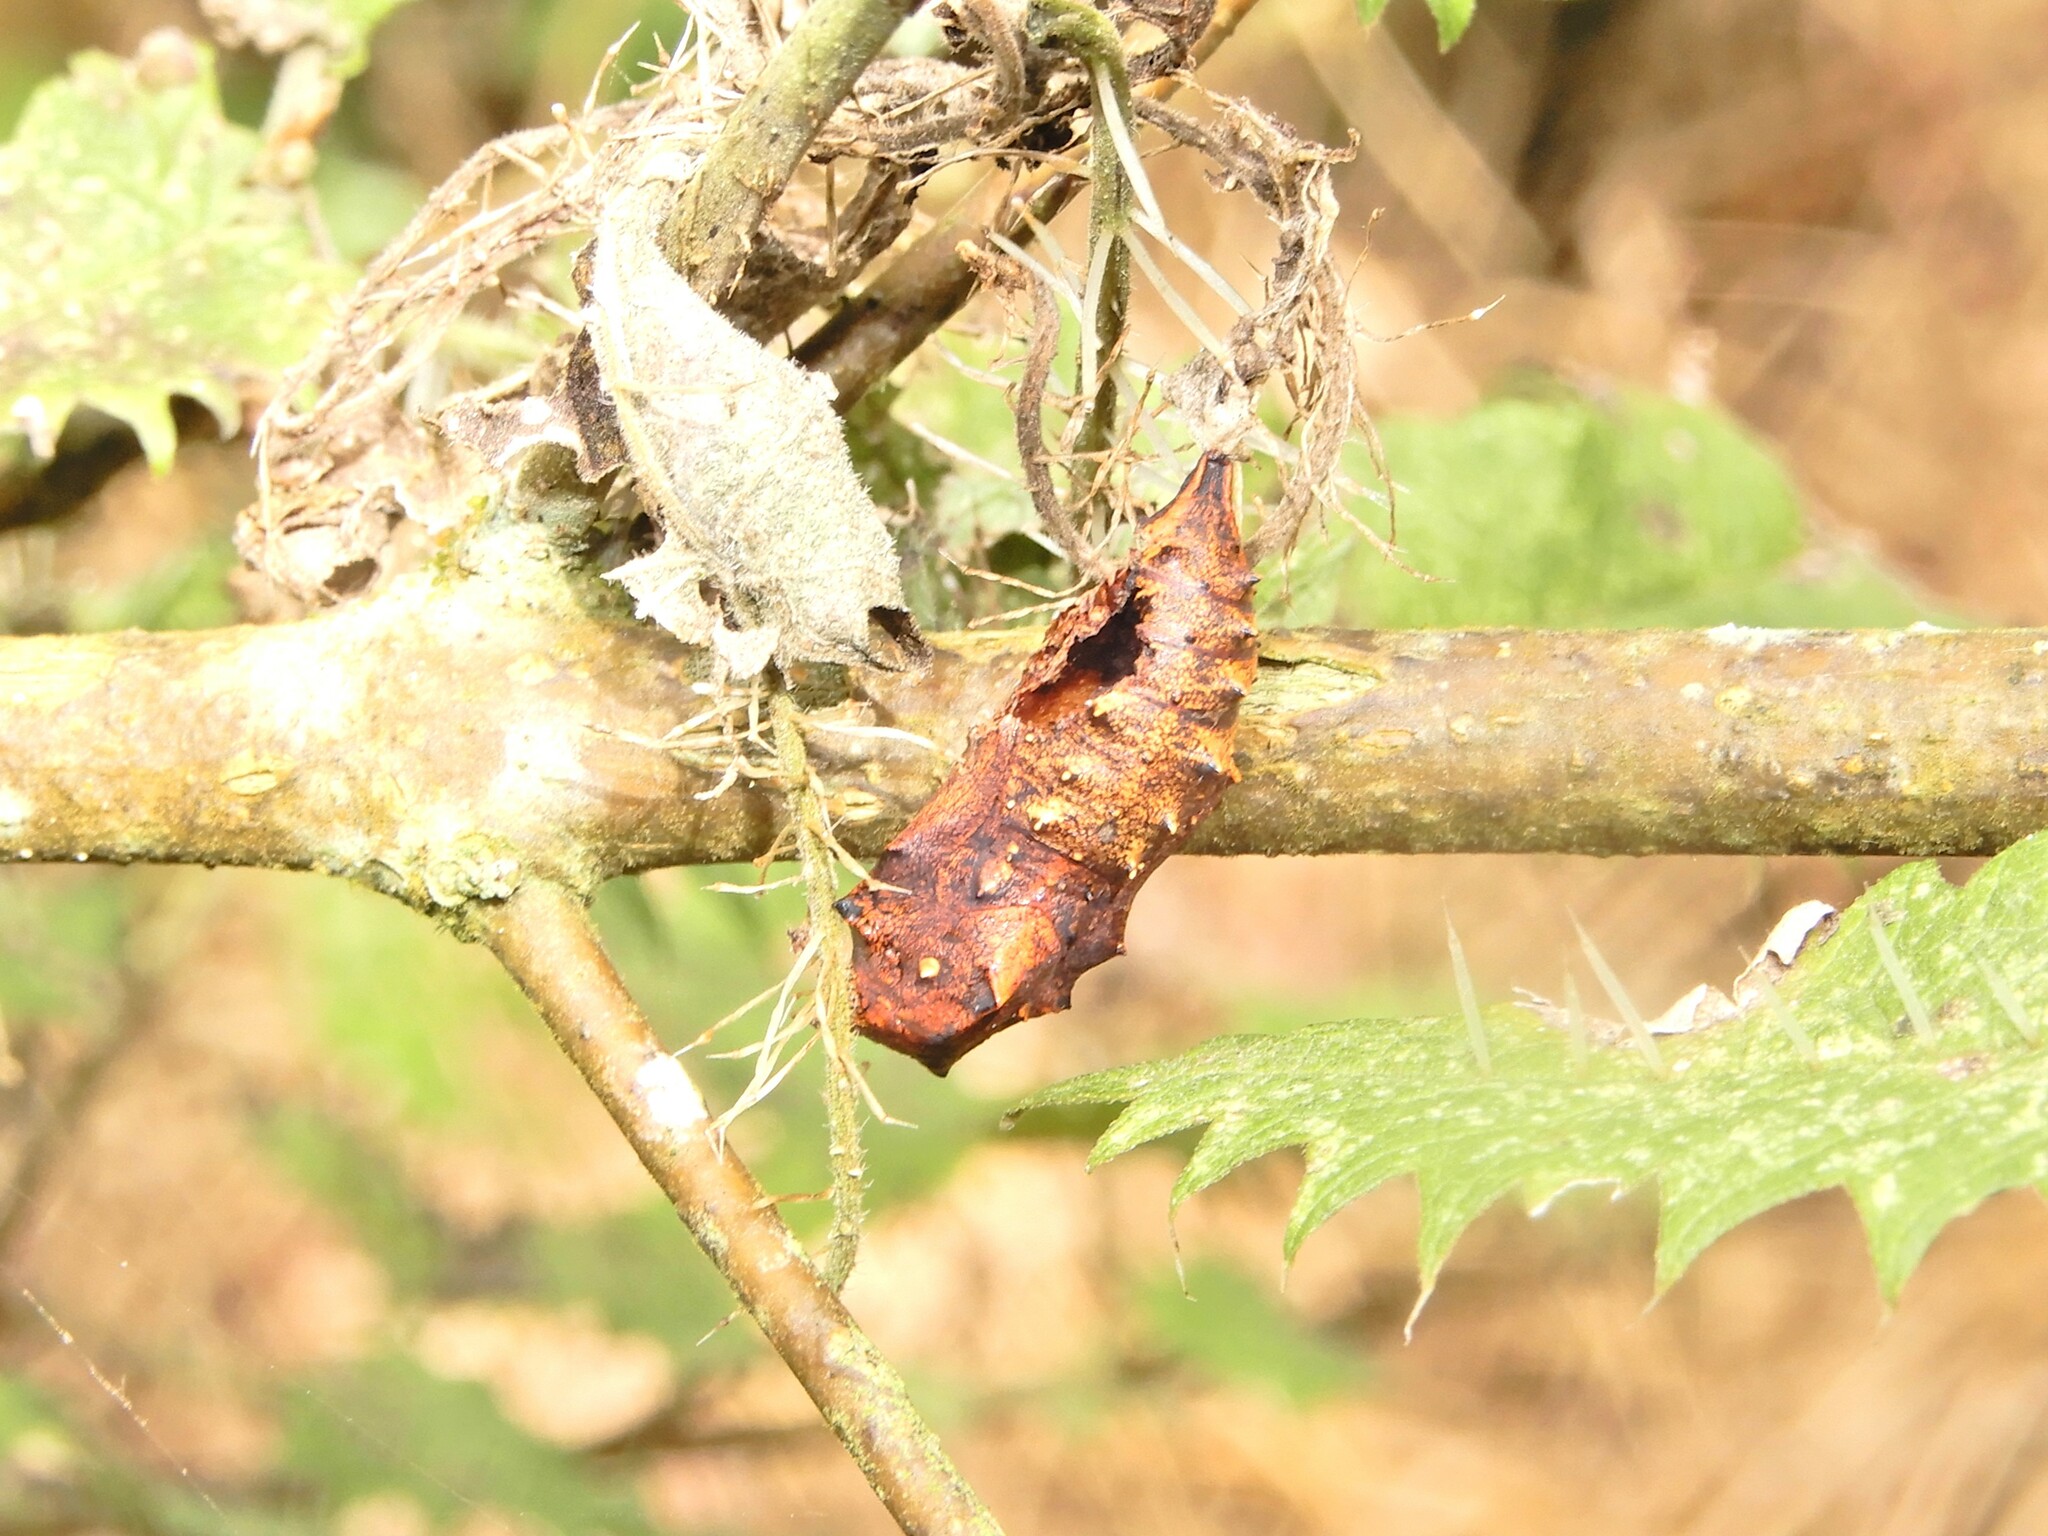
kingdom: Animalia
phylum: Arthropoda
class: Insecta
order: Lepidoptera
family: Nymphalidae
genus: Vanessa
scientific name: Vanessa gonerilla
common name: New zealand red admiral
